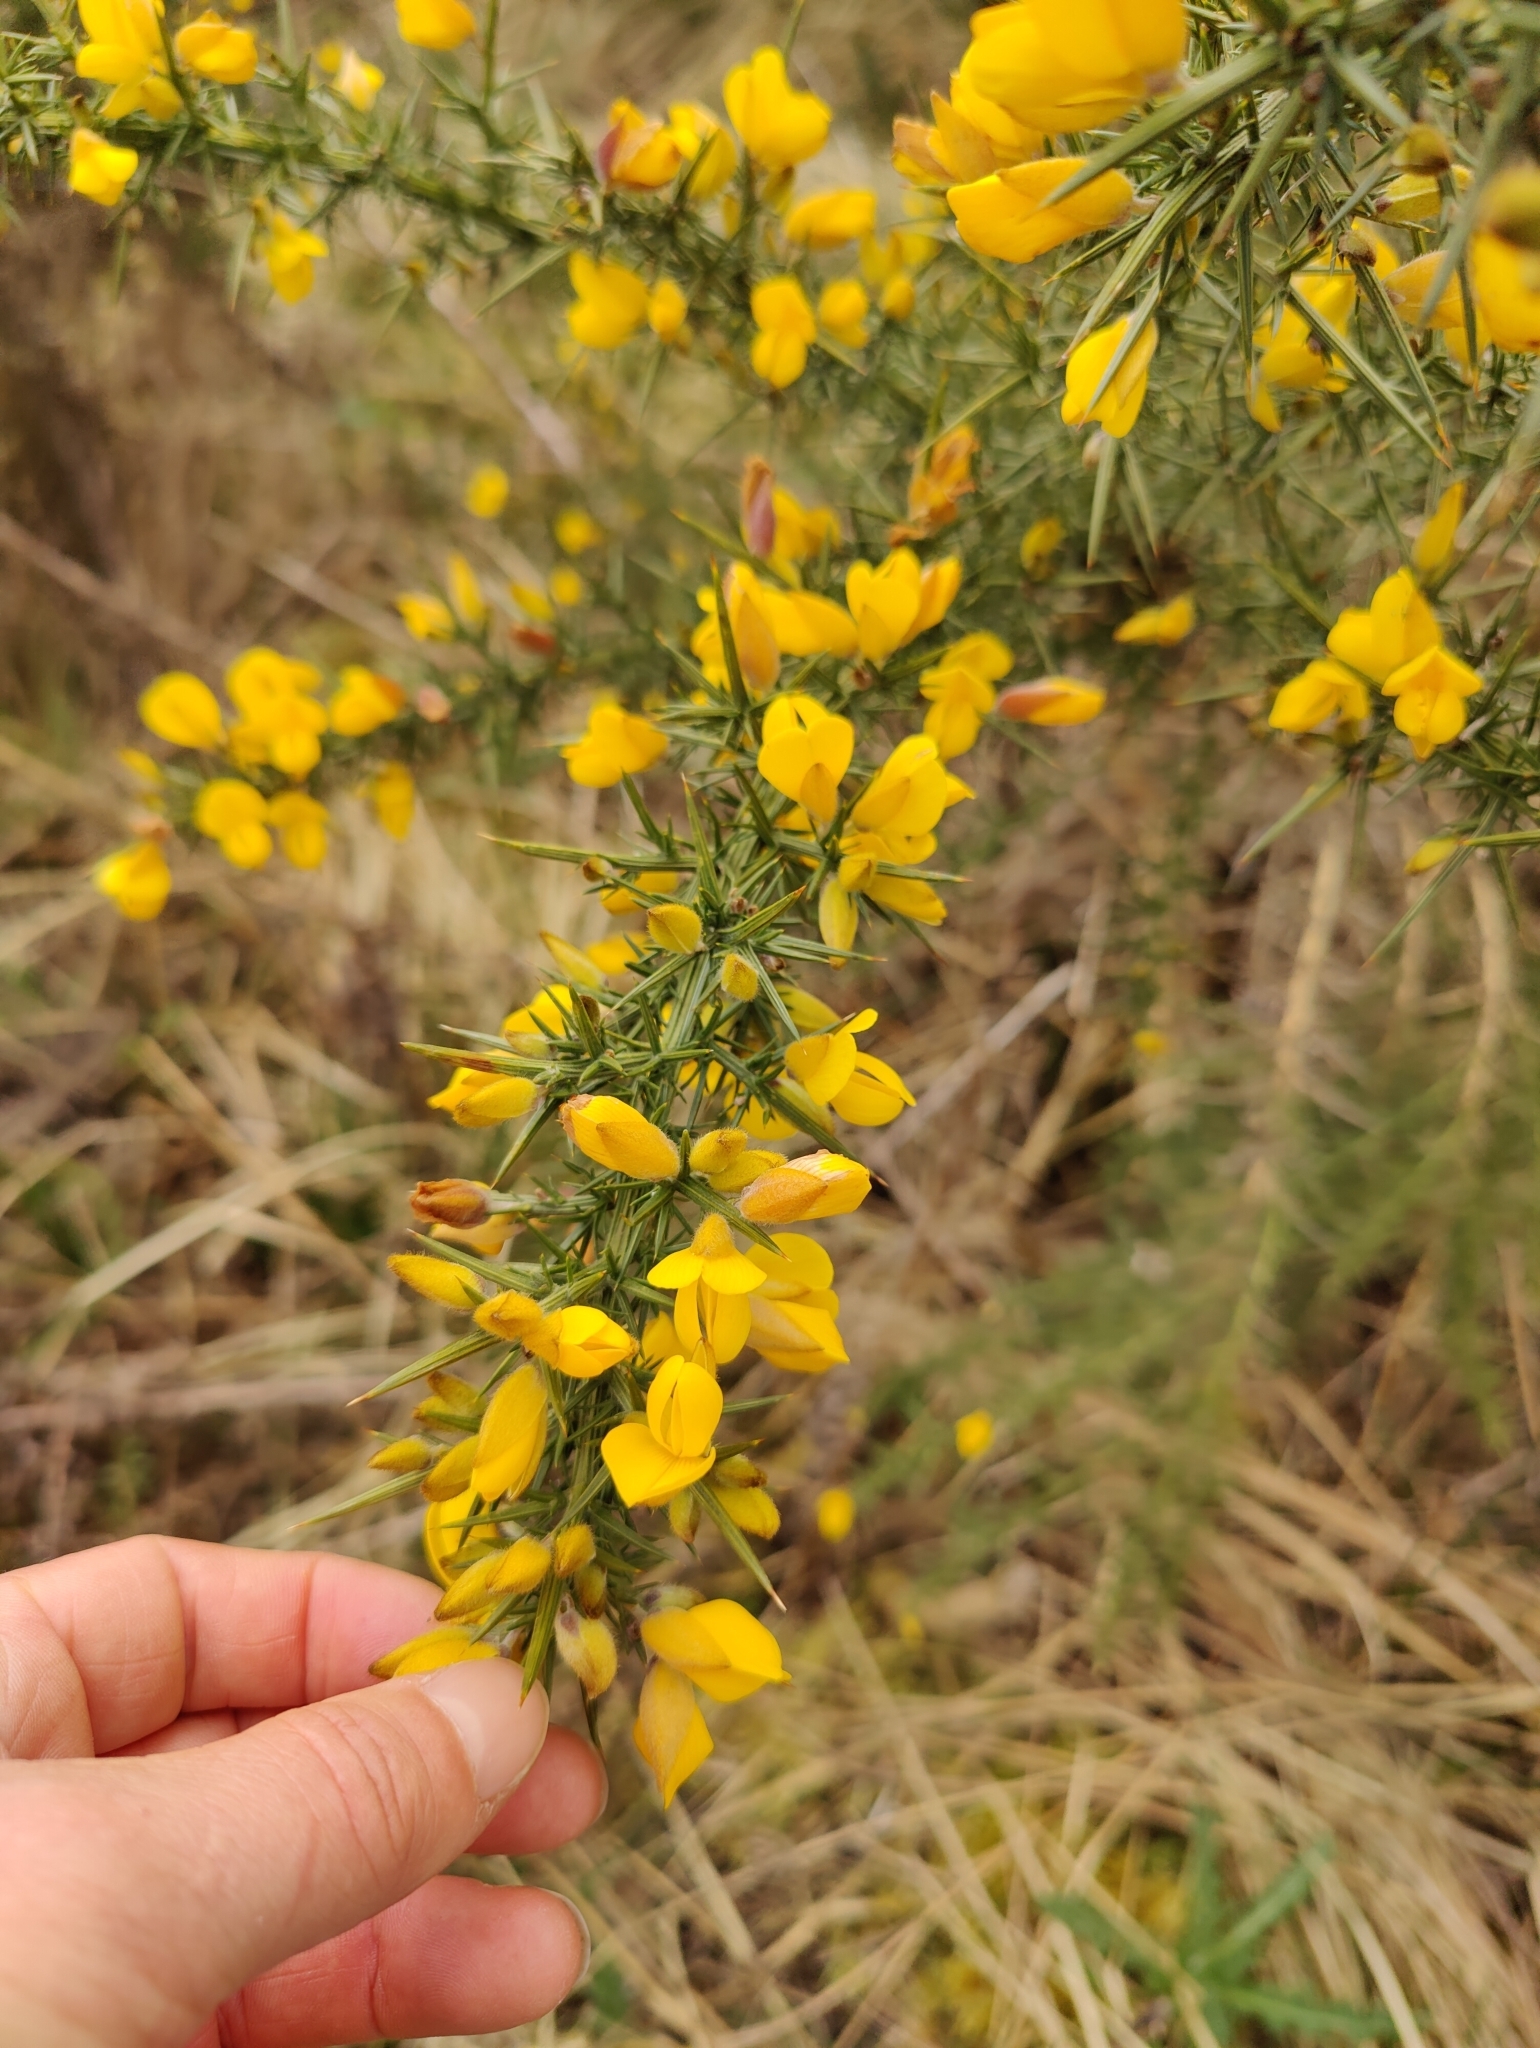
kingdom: Plantae
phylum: Tracheophyta
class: Magnoliopsida
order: Fabales
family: Fabaceae
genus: Ulex
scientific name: Ulex europaeus
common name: Common gorse
